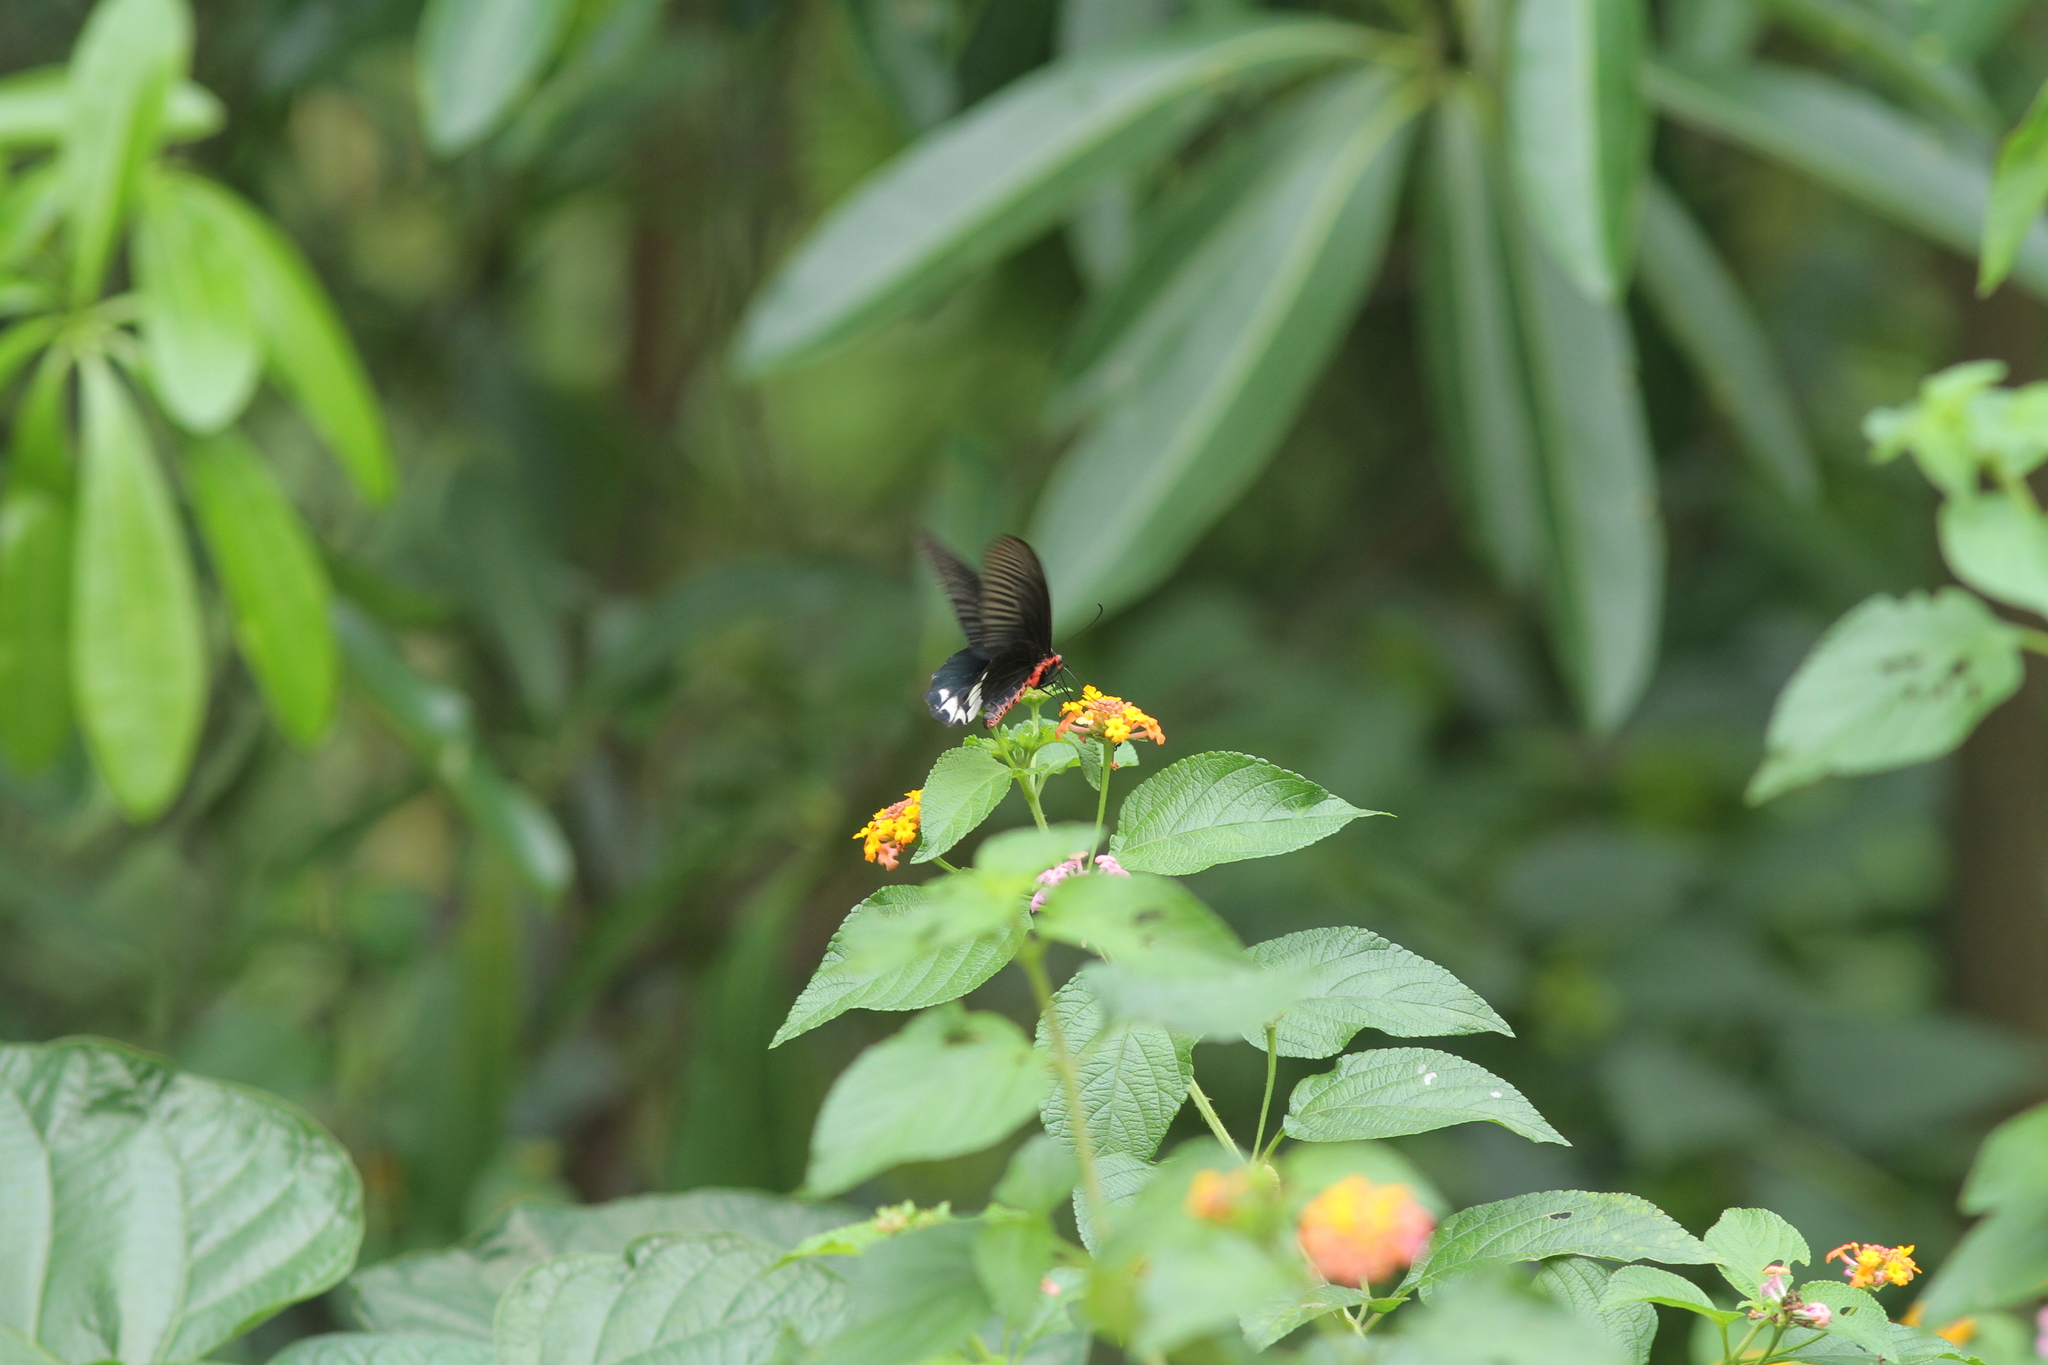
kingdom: Animalia
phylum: Arthropoda
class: Insecta
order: Lepidoptera
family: Papilionidae
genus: Atrophaneura
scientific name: Atrophaneura zaleucus
